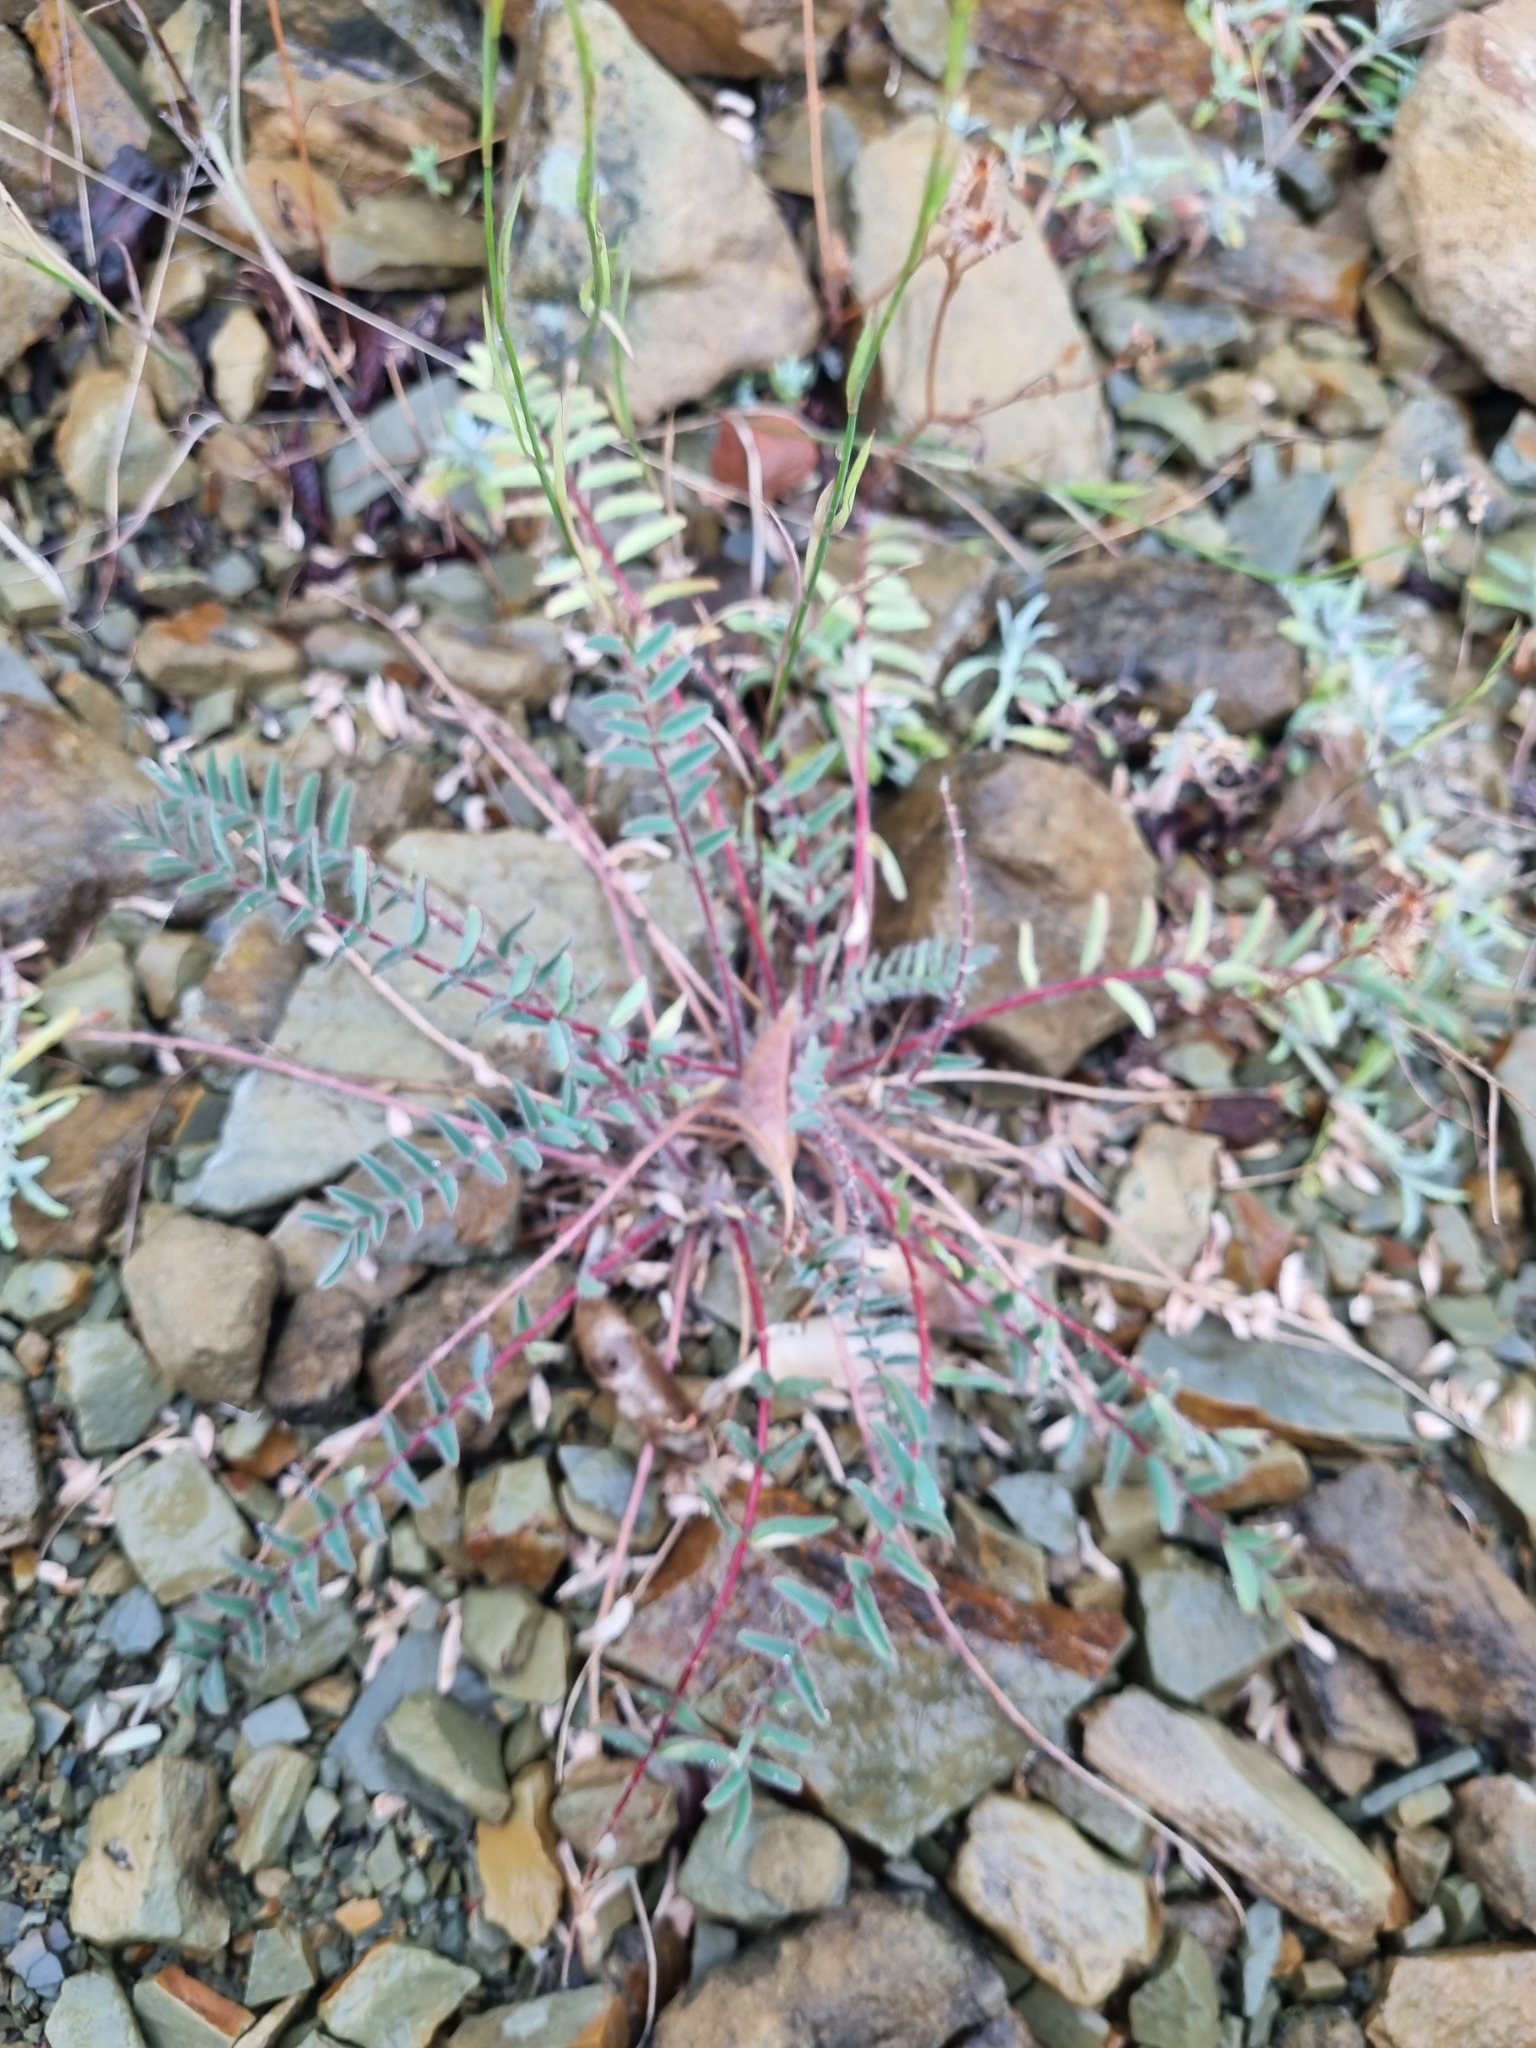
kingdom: Plantae
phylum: Tracheophyta
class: Magnoliopsida
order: Fabales
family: Fabaceae
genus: Astragalus
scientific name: Astragalus utriger
